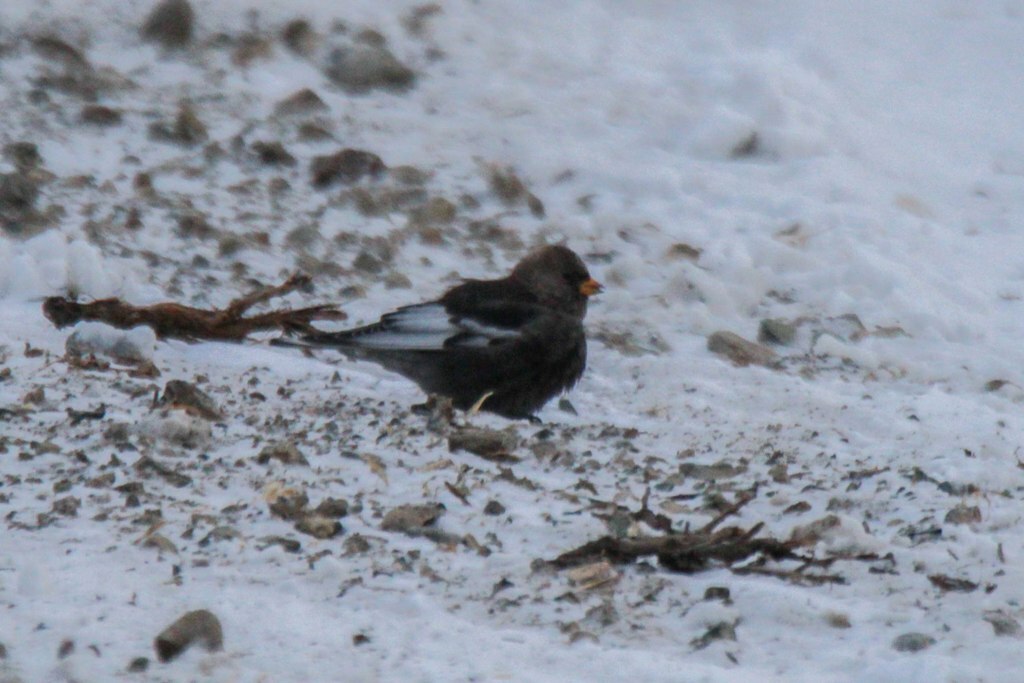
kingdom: Animalia
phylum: Chordata
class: Aves
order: Passeriformes
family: Fringillidae
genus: Leucosticte
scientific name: Leucosticte arctoa
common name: Asian rosy finch
